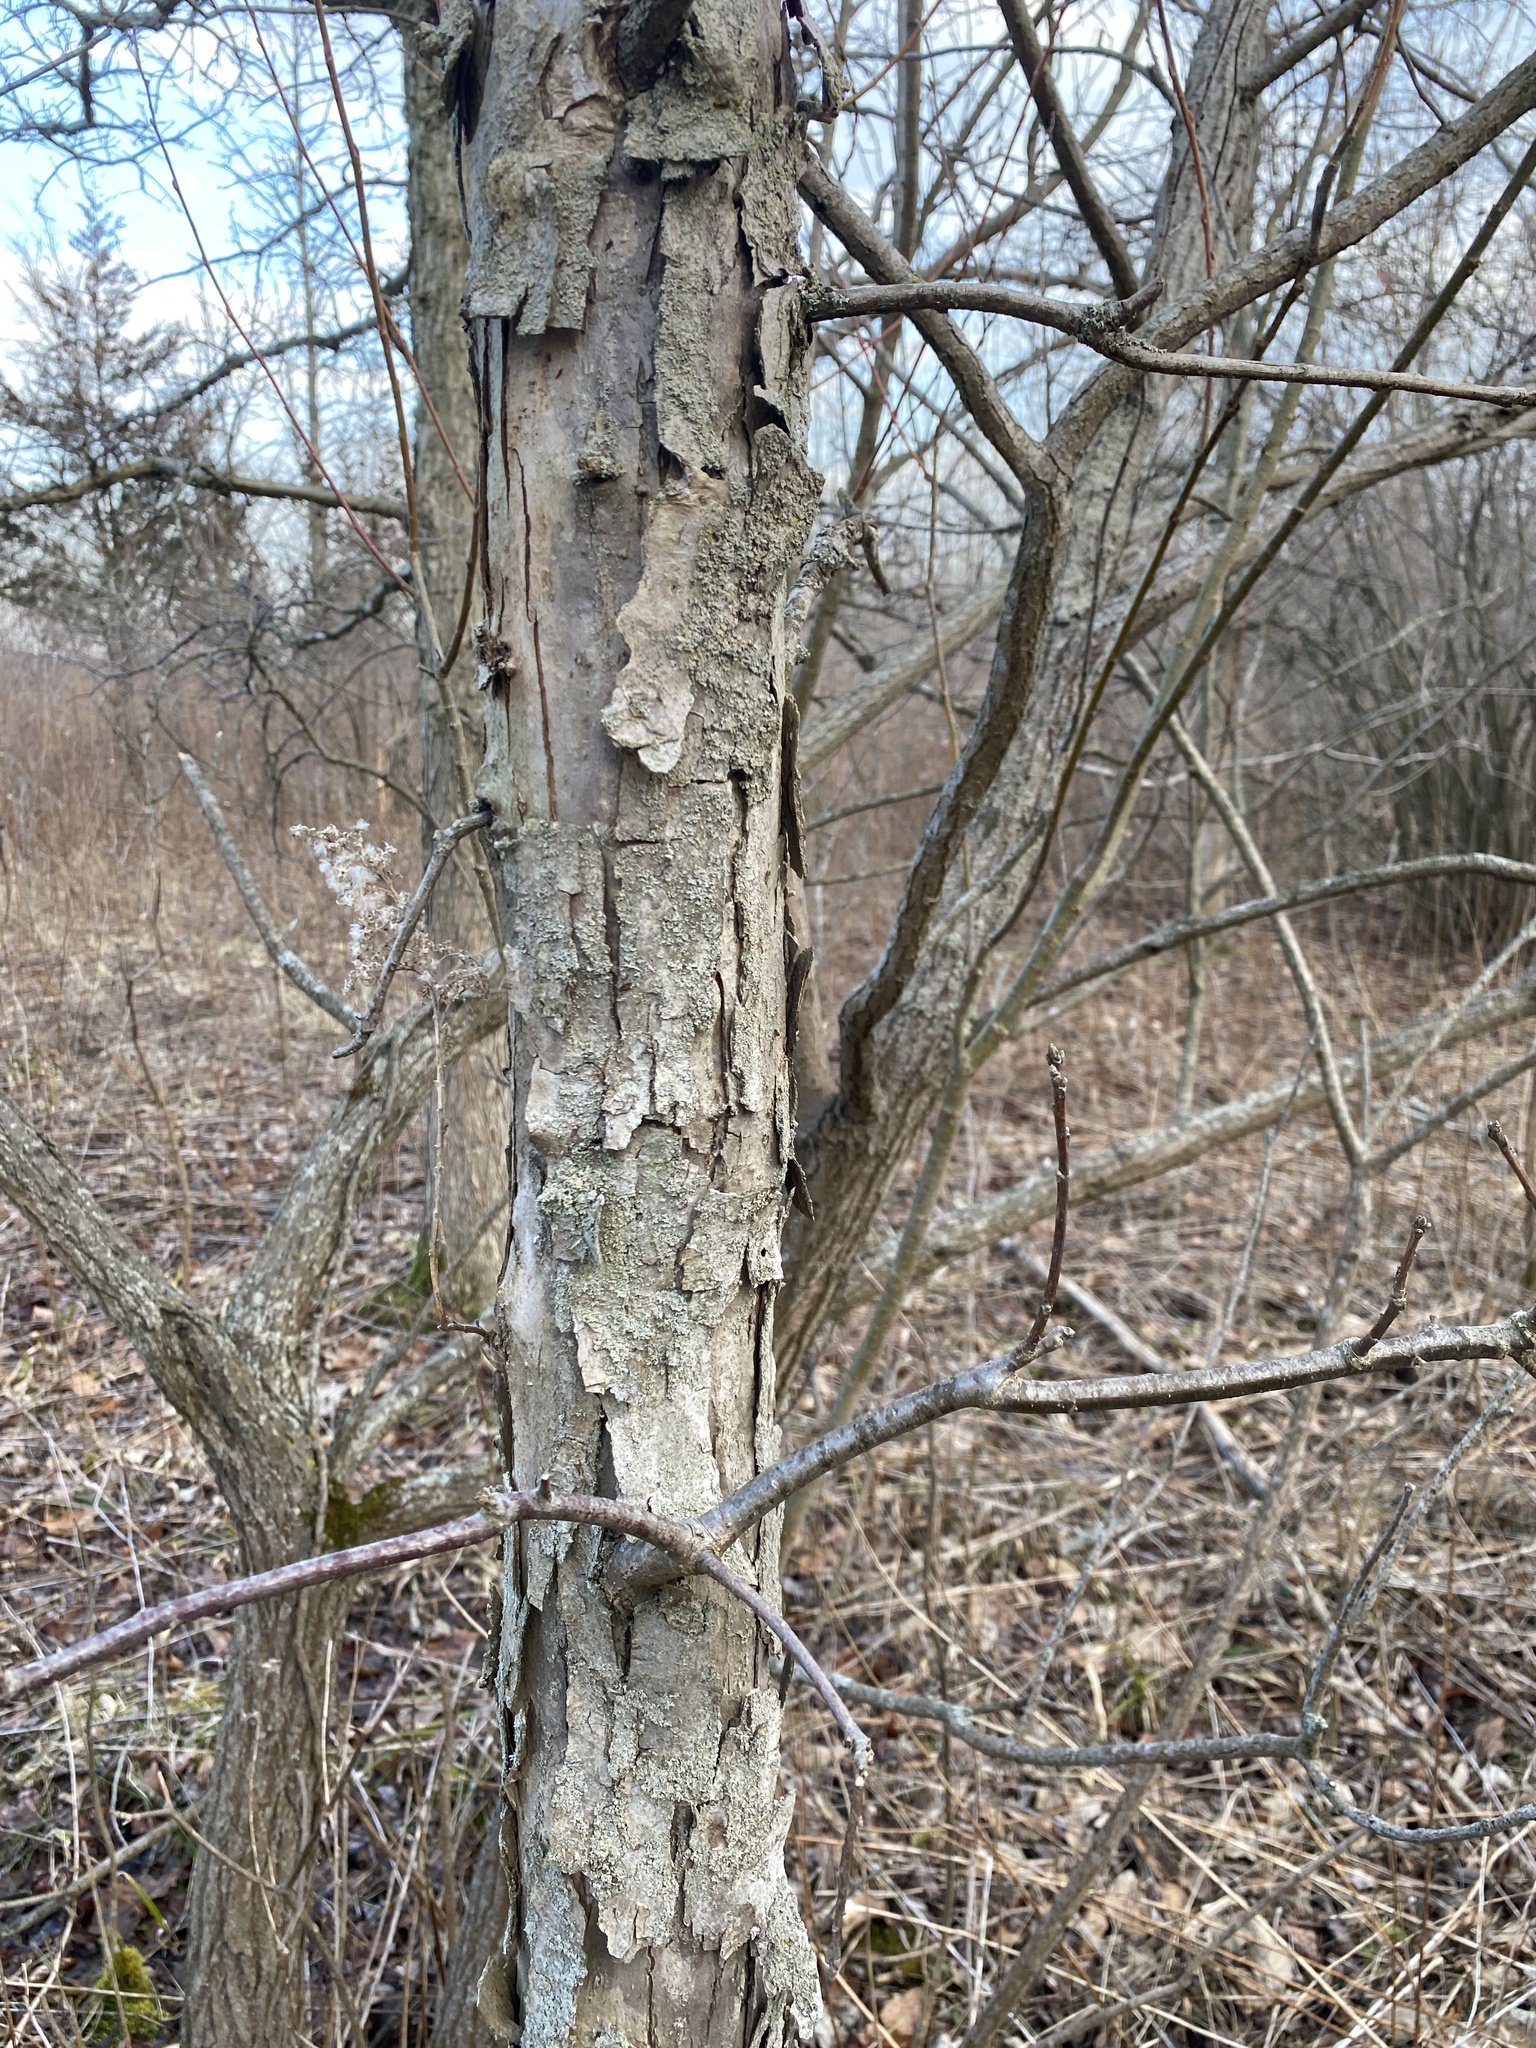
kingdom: Plantae
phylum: Tracheophyta
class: Magnoliopsida
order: Fagales
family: Fagaceae
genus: Quercus
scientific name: Quercus macrocarpa
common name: Bur oak
